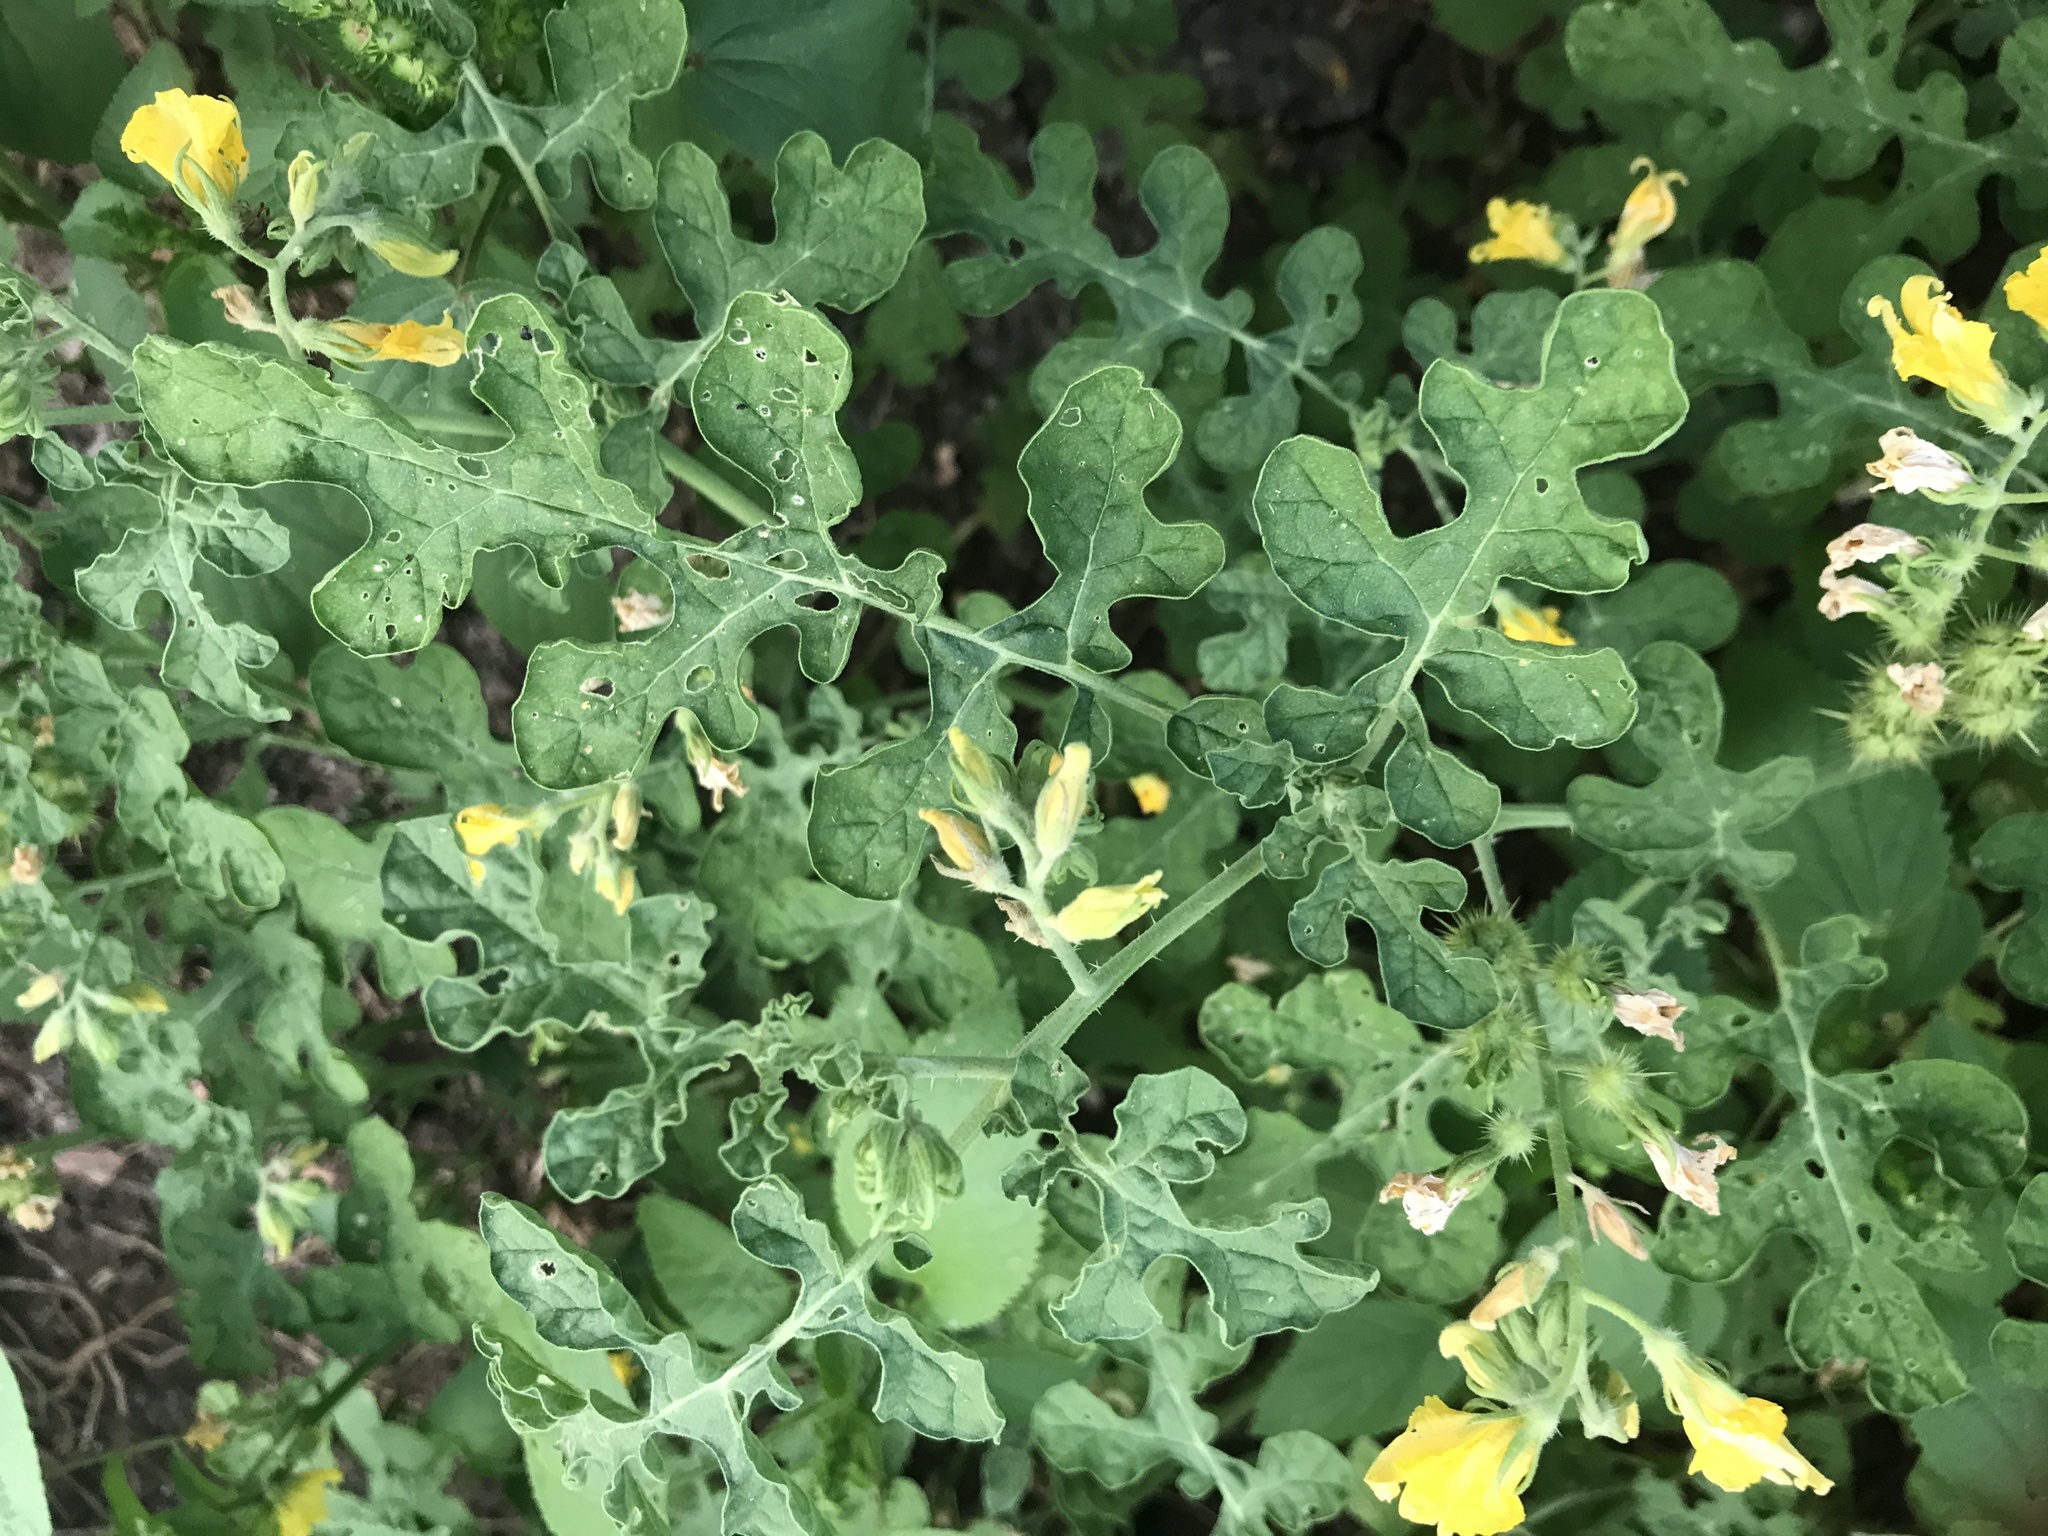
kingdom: Plantae
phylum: Tracheophyta
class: Magnoliopsida
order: Solanales
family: Solanaceae
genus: Solanum
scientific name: Solanum angustifolium
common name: Buffalobur nightshade
